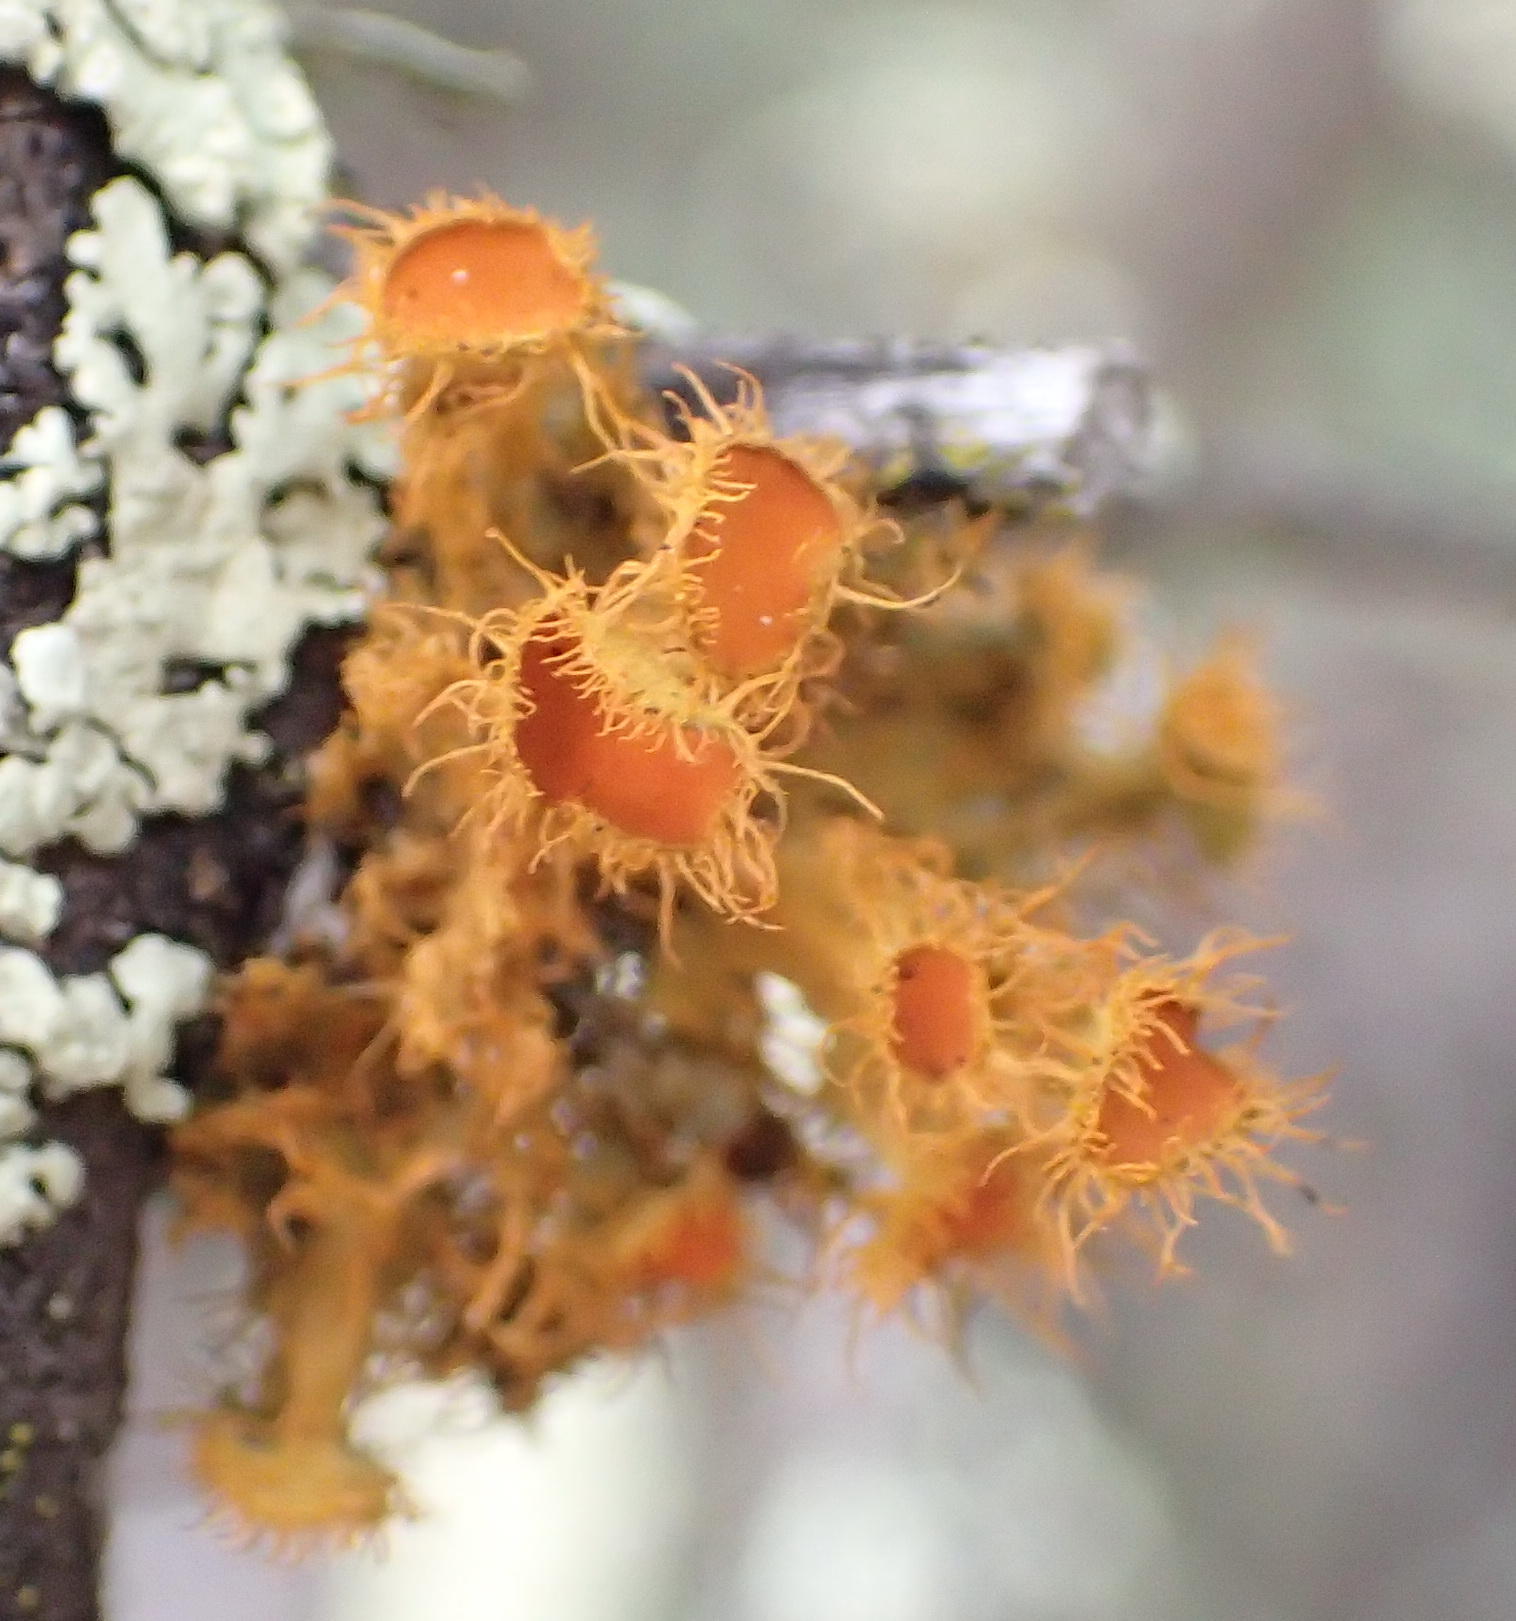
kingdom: Fungi
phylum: Ascomycota
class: Lecanoromycetes
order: Teloschistales
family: Teloschistaceae
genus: Niorma
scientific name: Niorma chrysophthalma
